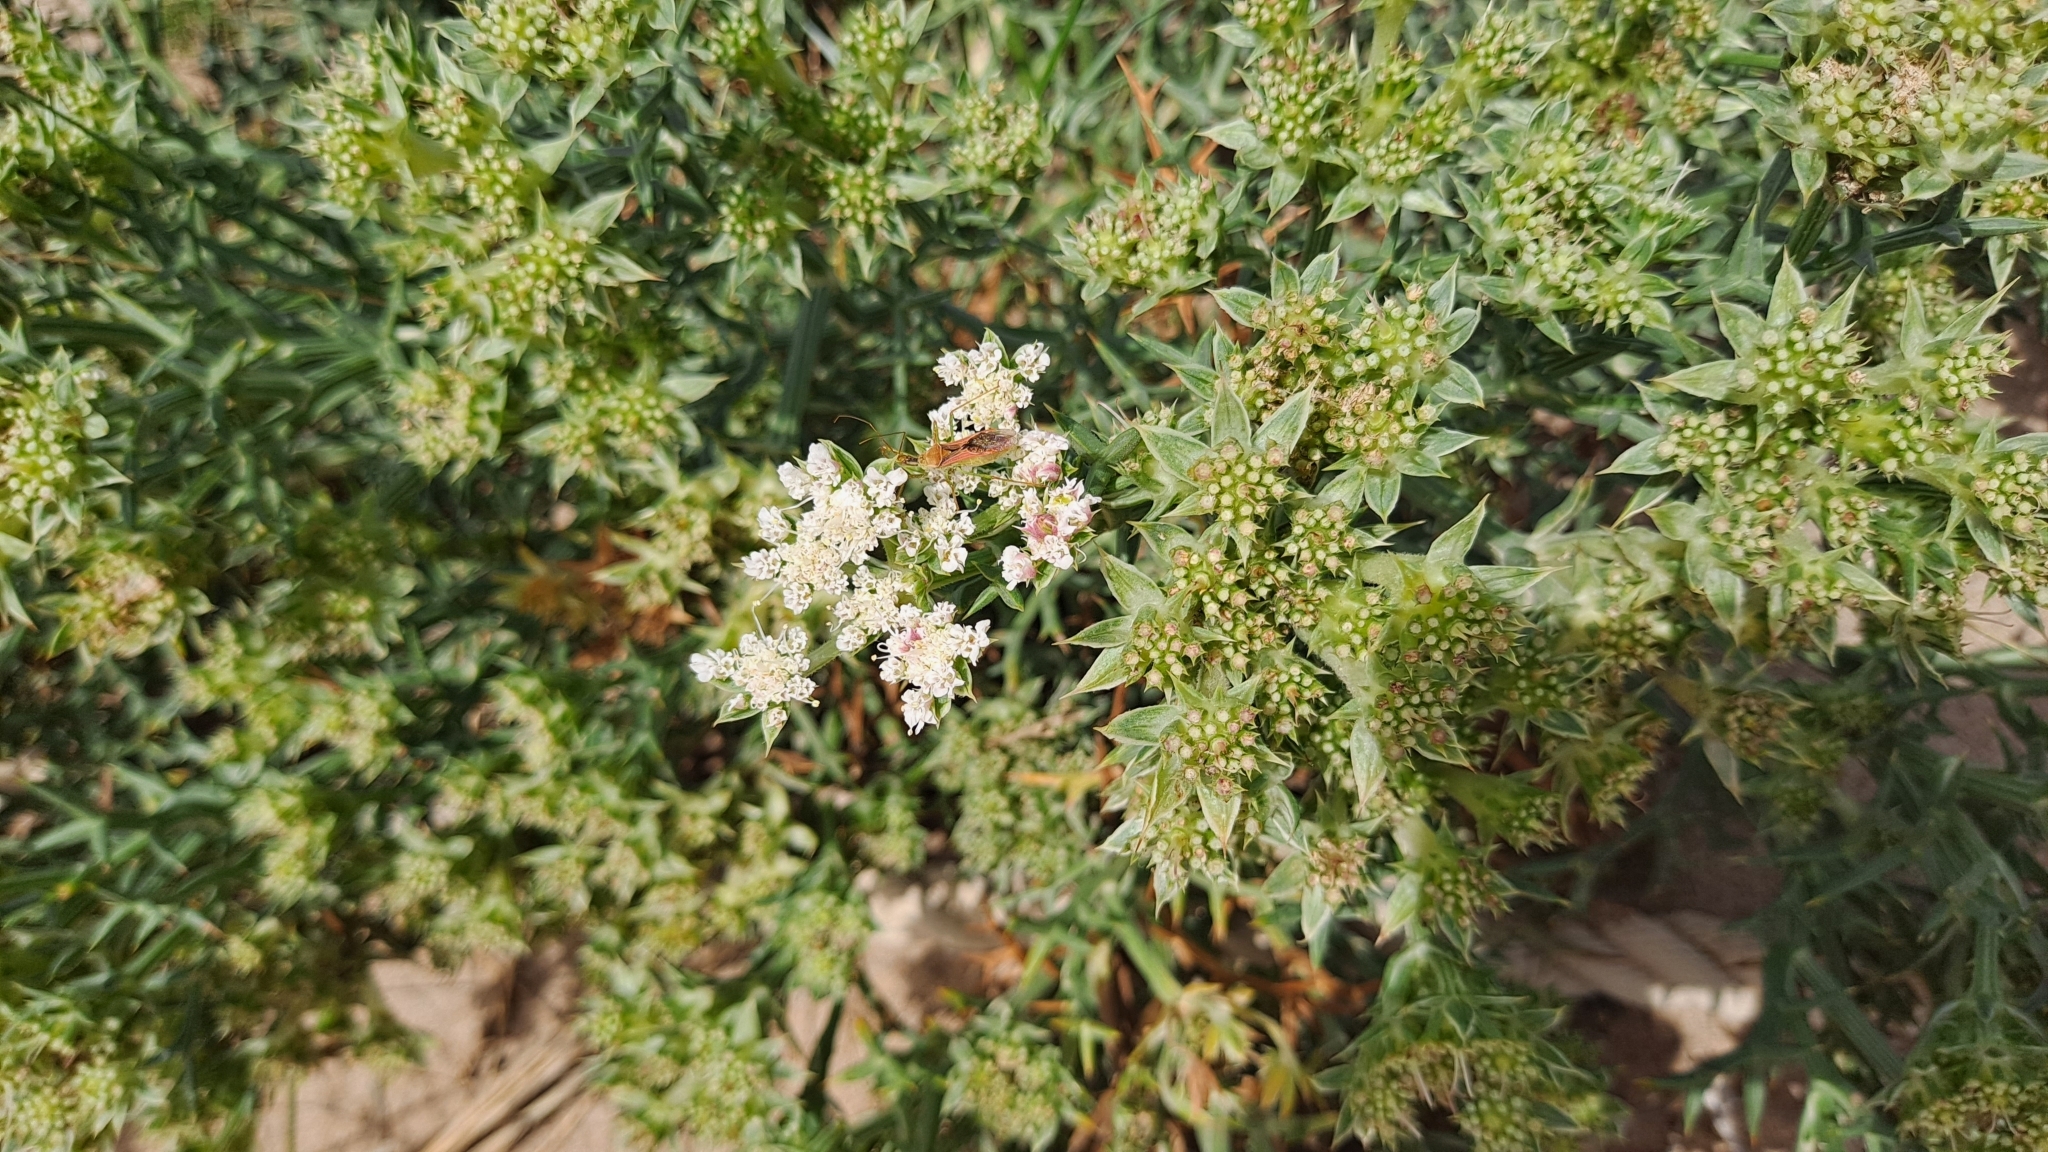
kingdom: Plantae
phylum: Tracheophyta
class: Magnoliopsida
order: Apiales
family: Apiaceae
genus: Echinophora
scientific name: Echinophora spinosa
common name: Prickly samphire
